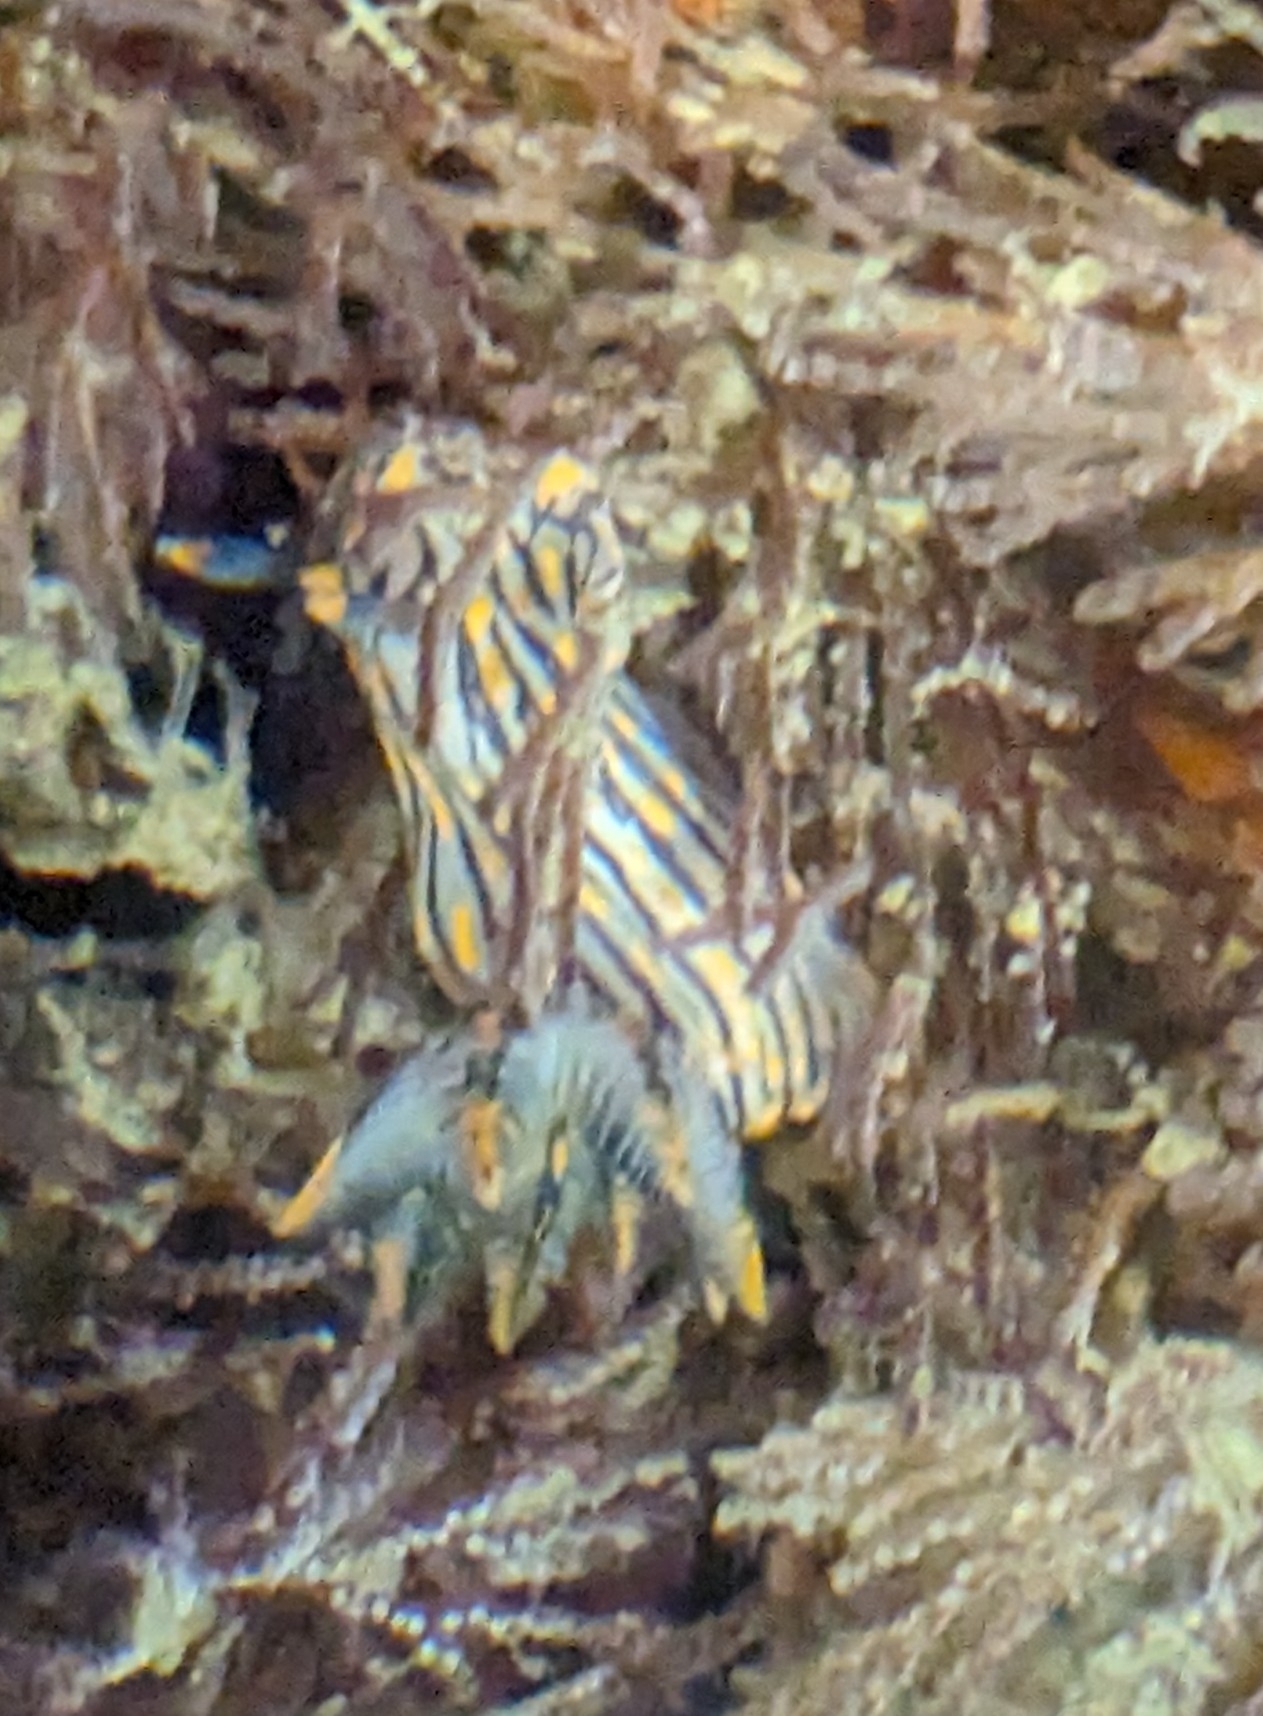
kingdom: Animalia
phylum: Mollusca
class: Gastropoda
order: Nudibranchia
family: Polyceridae
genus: Polycera
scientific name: Polycera atra
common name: Orange-spike polycera
